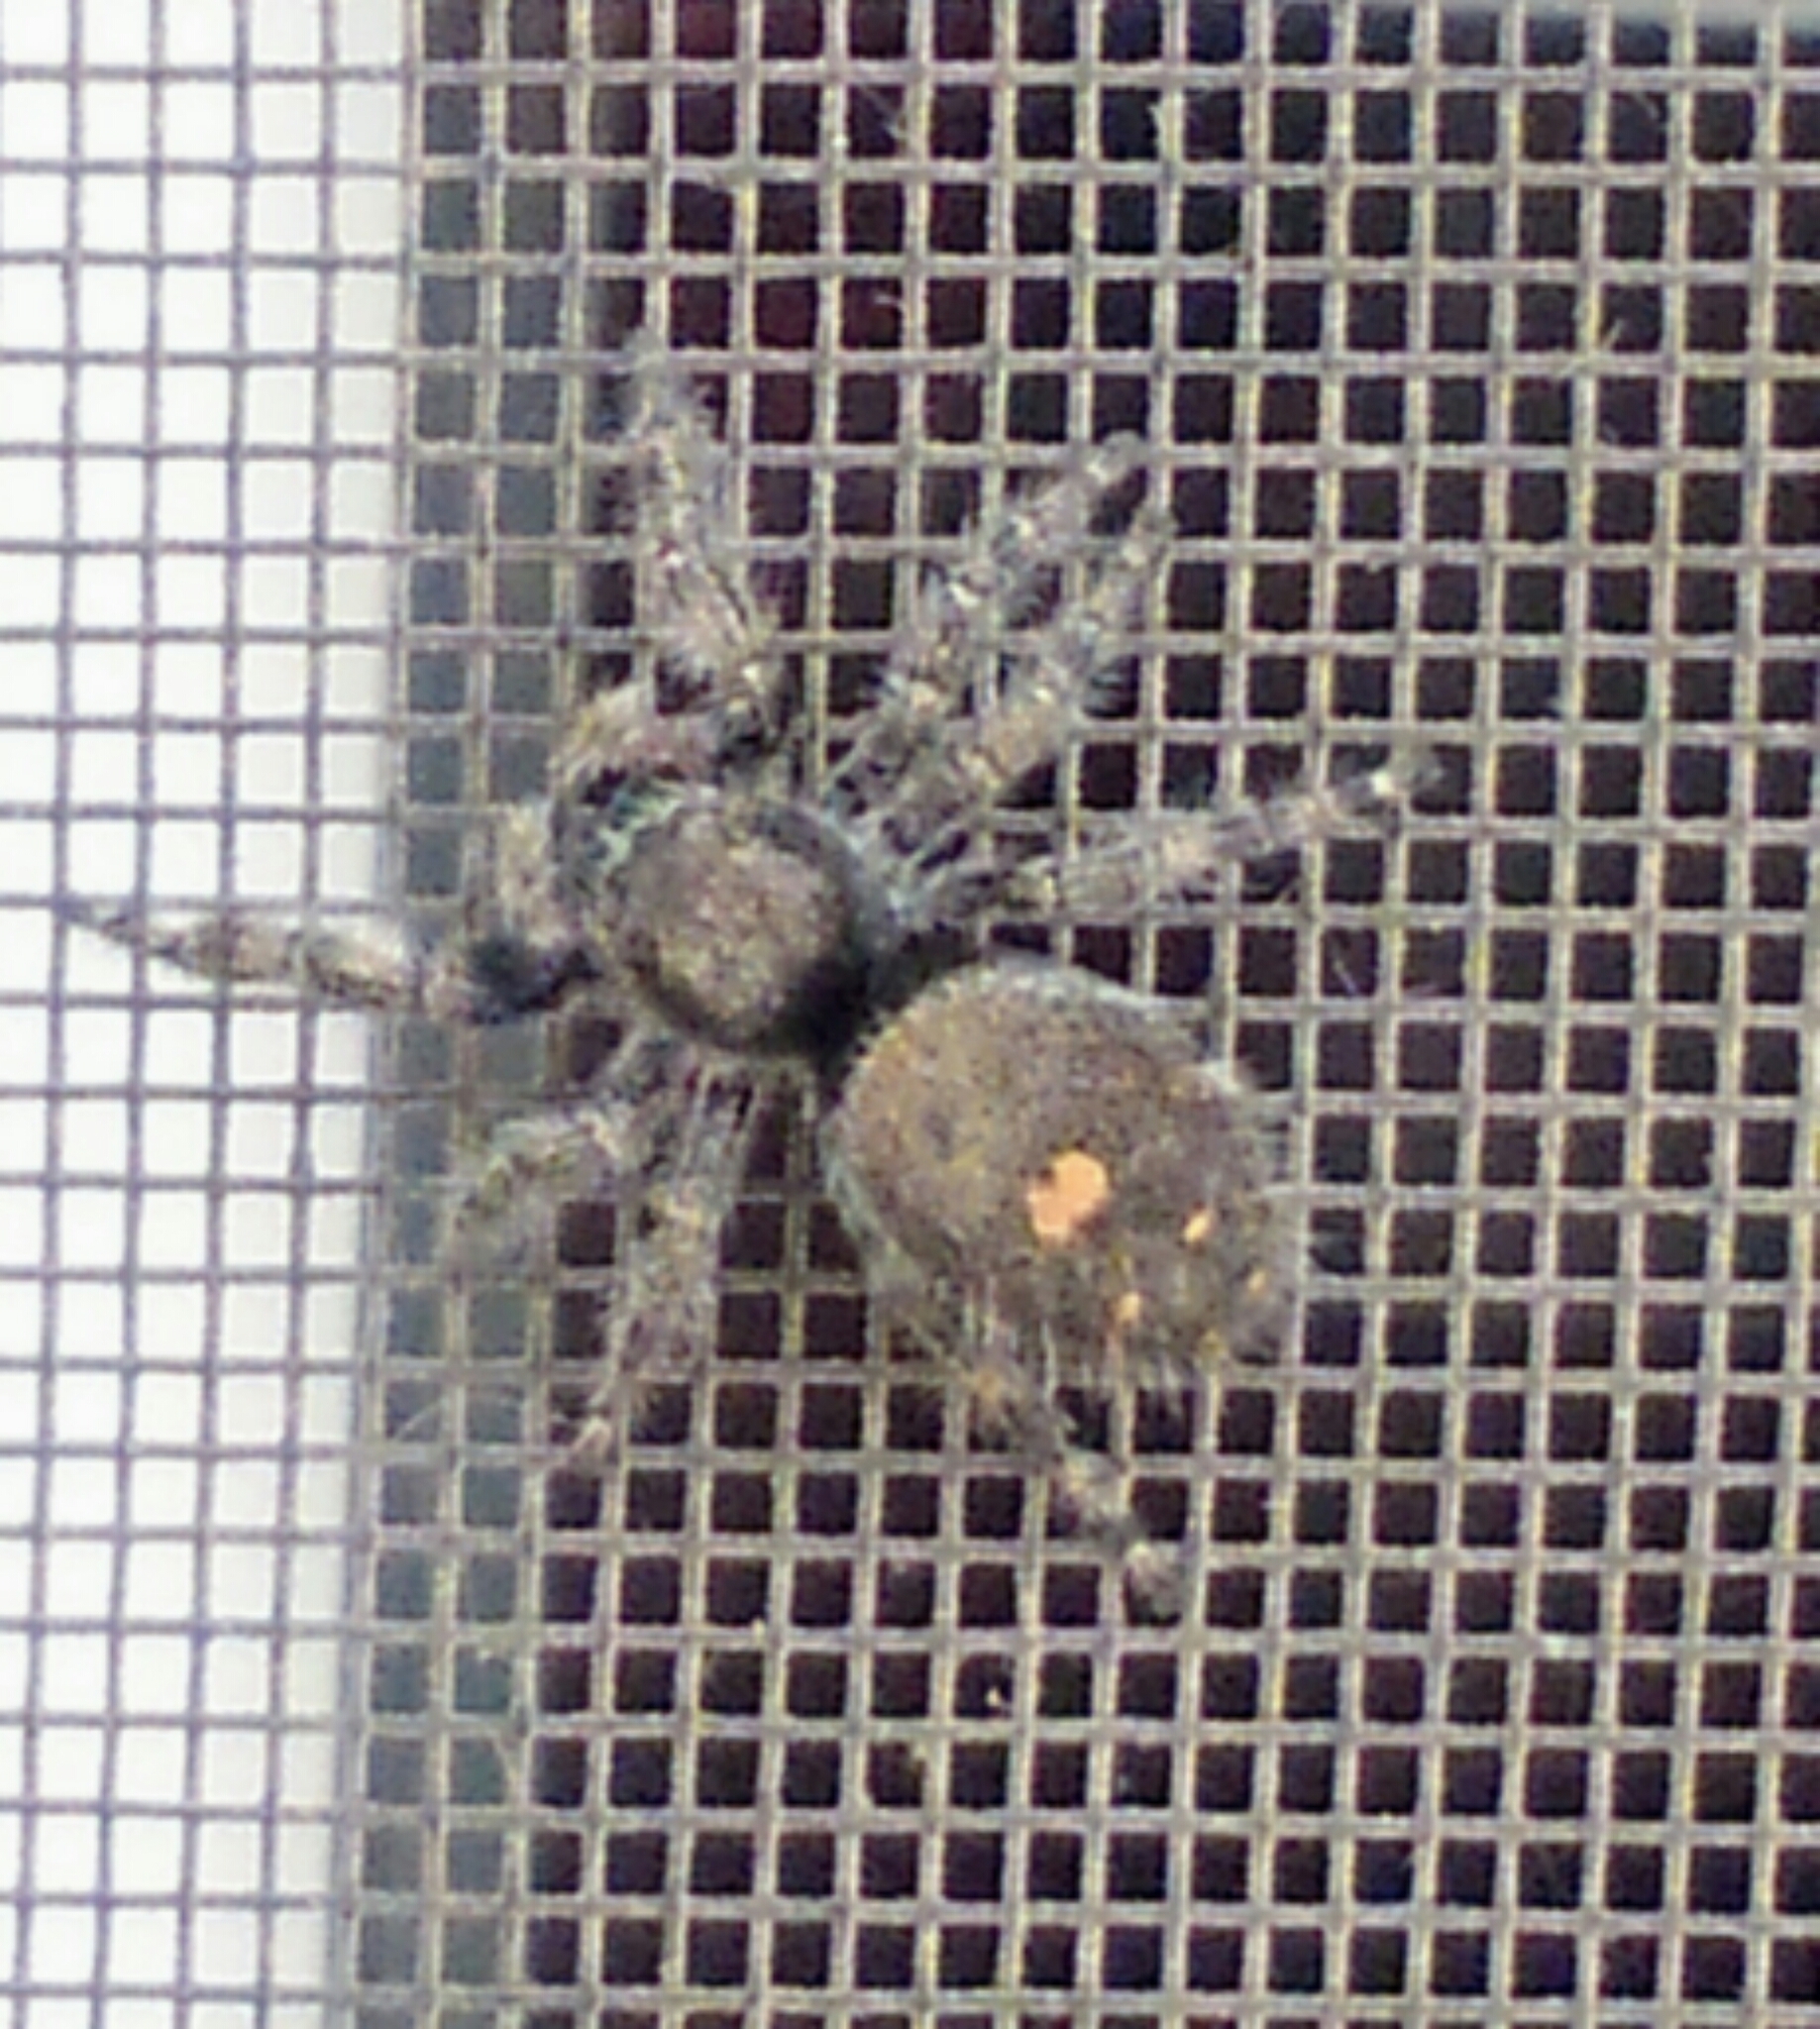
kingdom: Animalia
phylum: Arthropoda
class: Arachnida
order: Araneae
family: Salticidae
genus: Phidippus
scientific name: Phidippus audax
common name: Bold jumper
